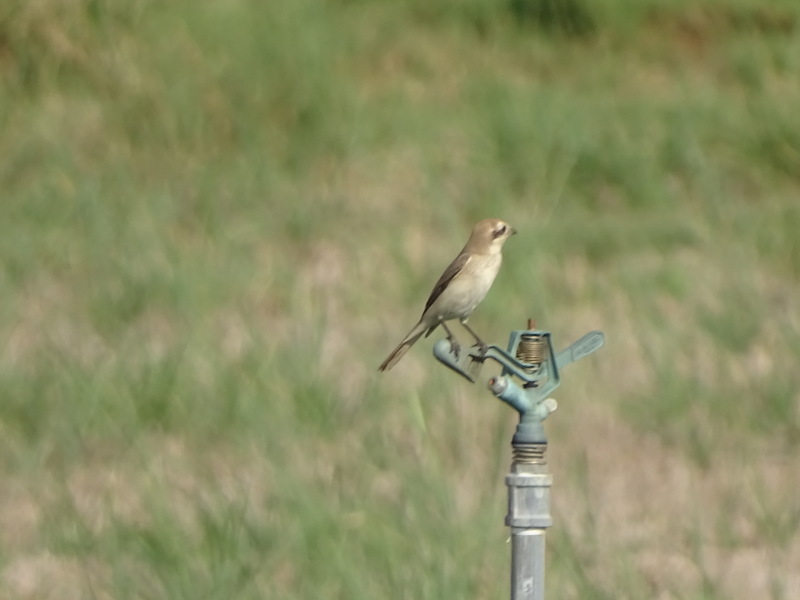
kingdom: Animalia
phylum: Chordata
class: Aves
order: Passeriformes
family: Laniidae
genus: Lanius
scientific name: Lanius isabellinus
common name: Isabelline shrike
